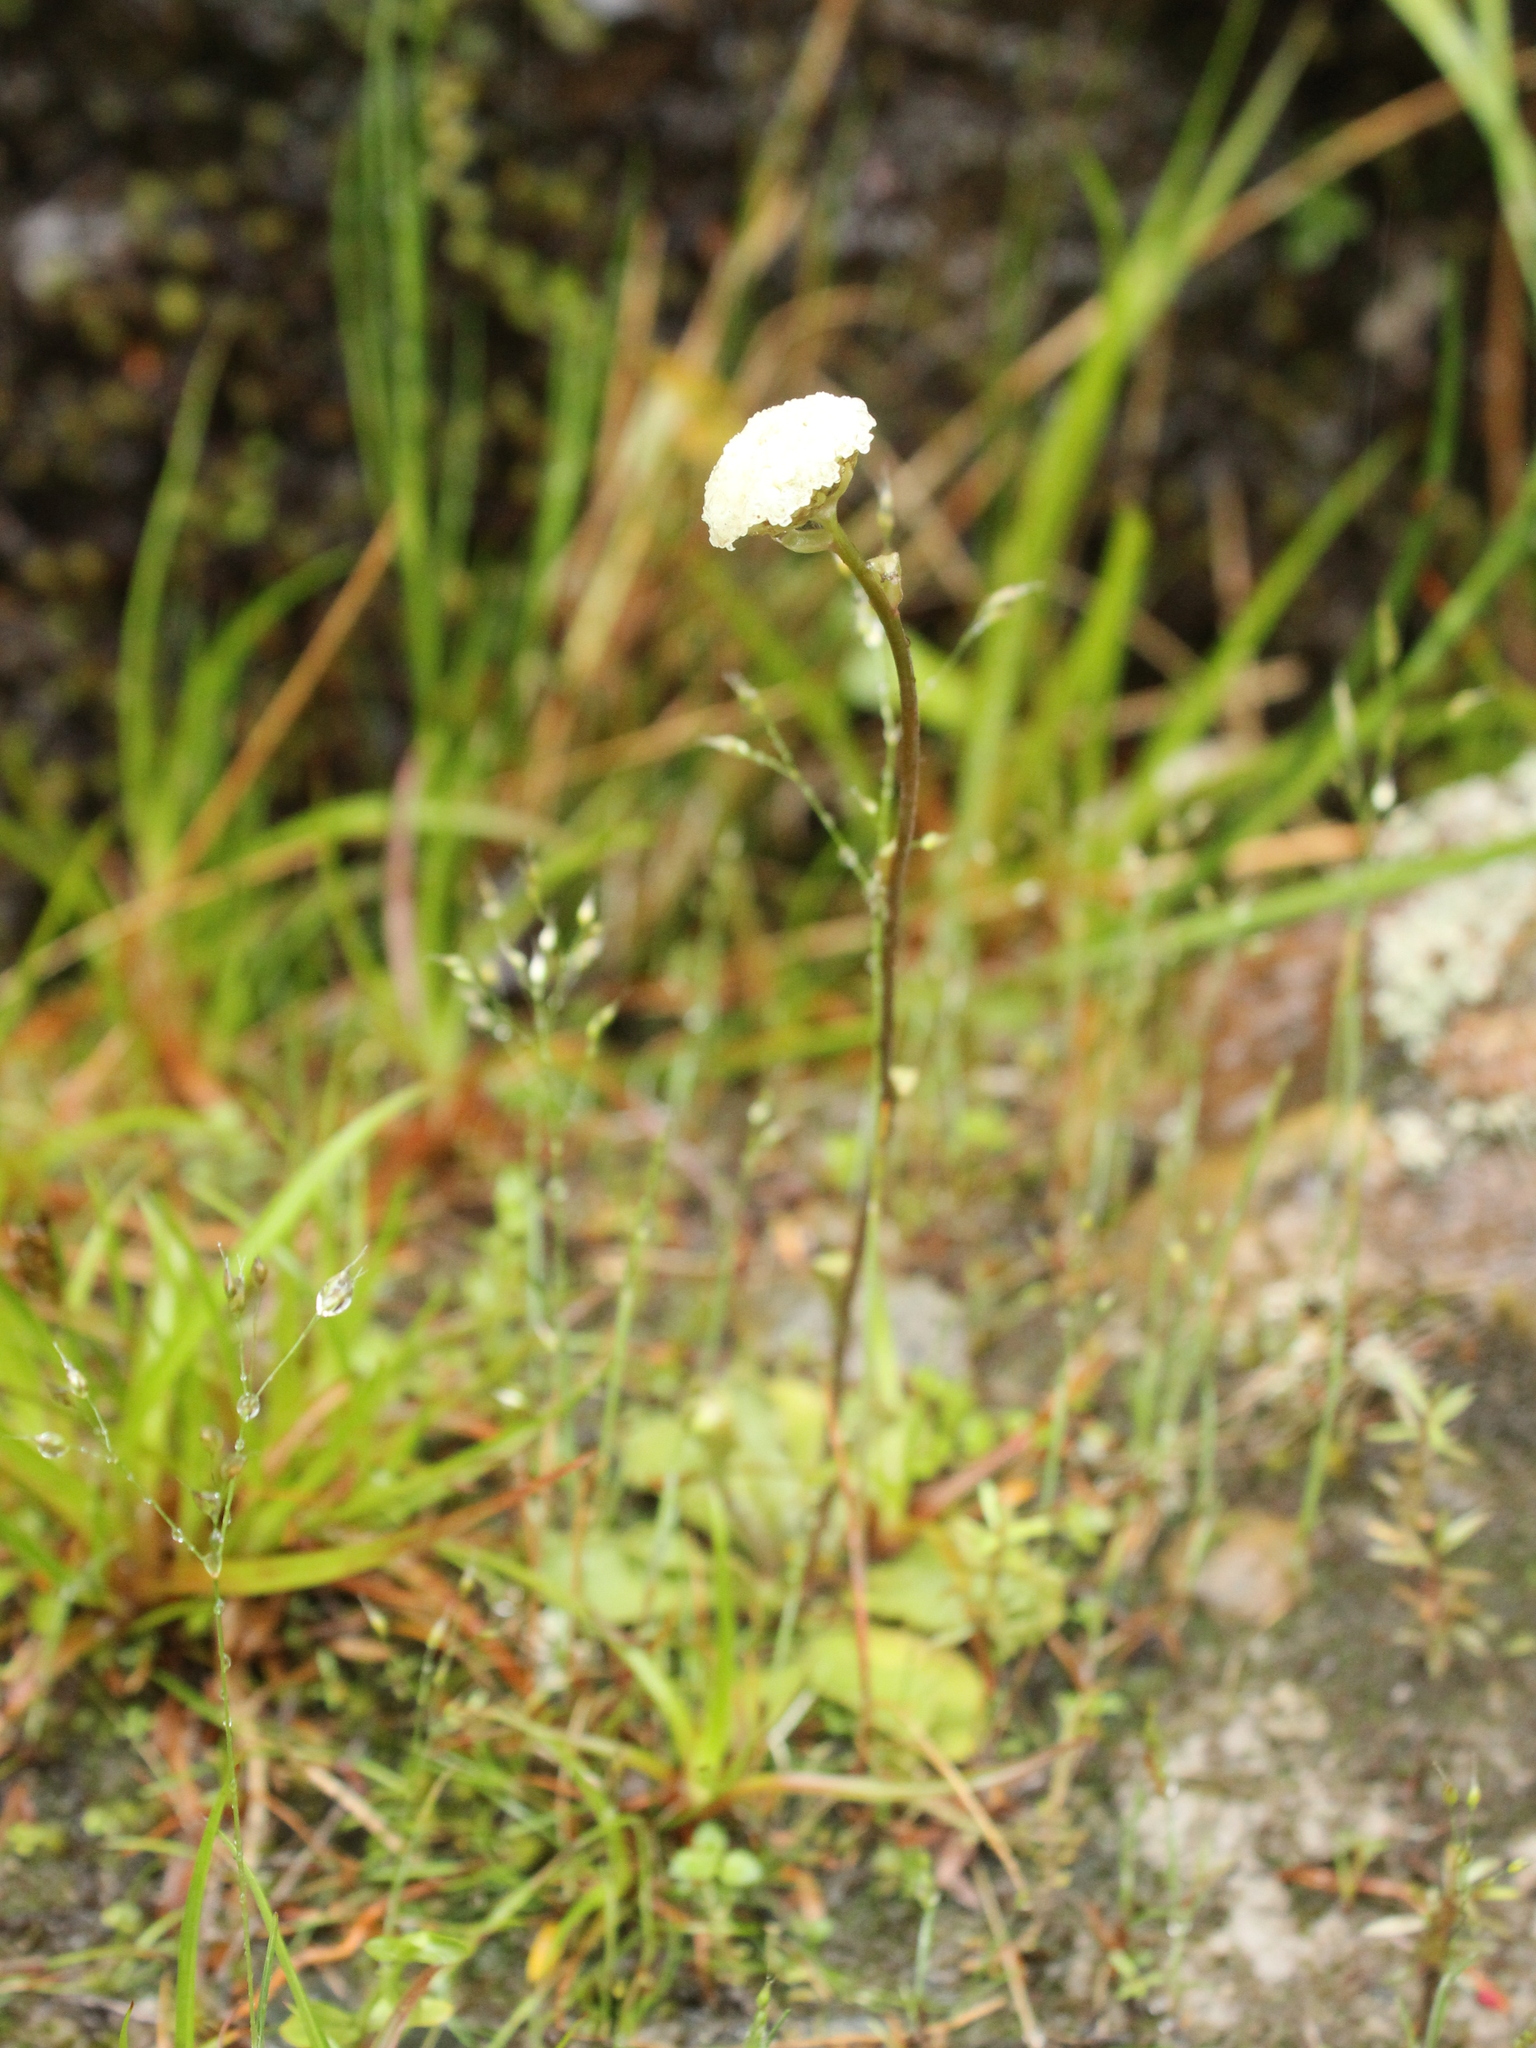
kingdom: Plantae
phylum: Tracheophyta
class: Magnoliopsida
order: Asterales
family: Asteraceae
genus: Craspedia
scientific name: Craspedia uniflora
